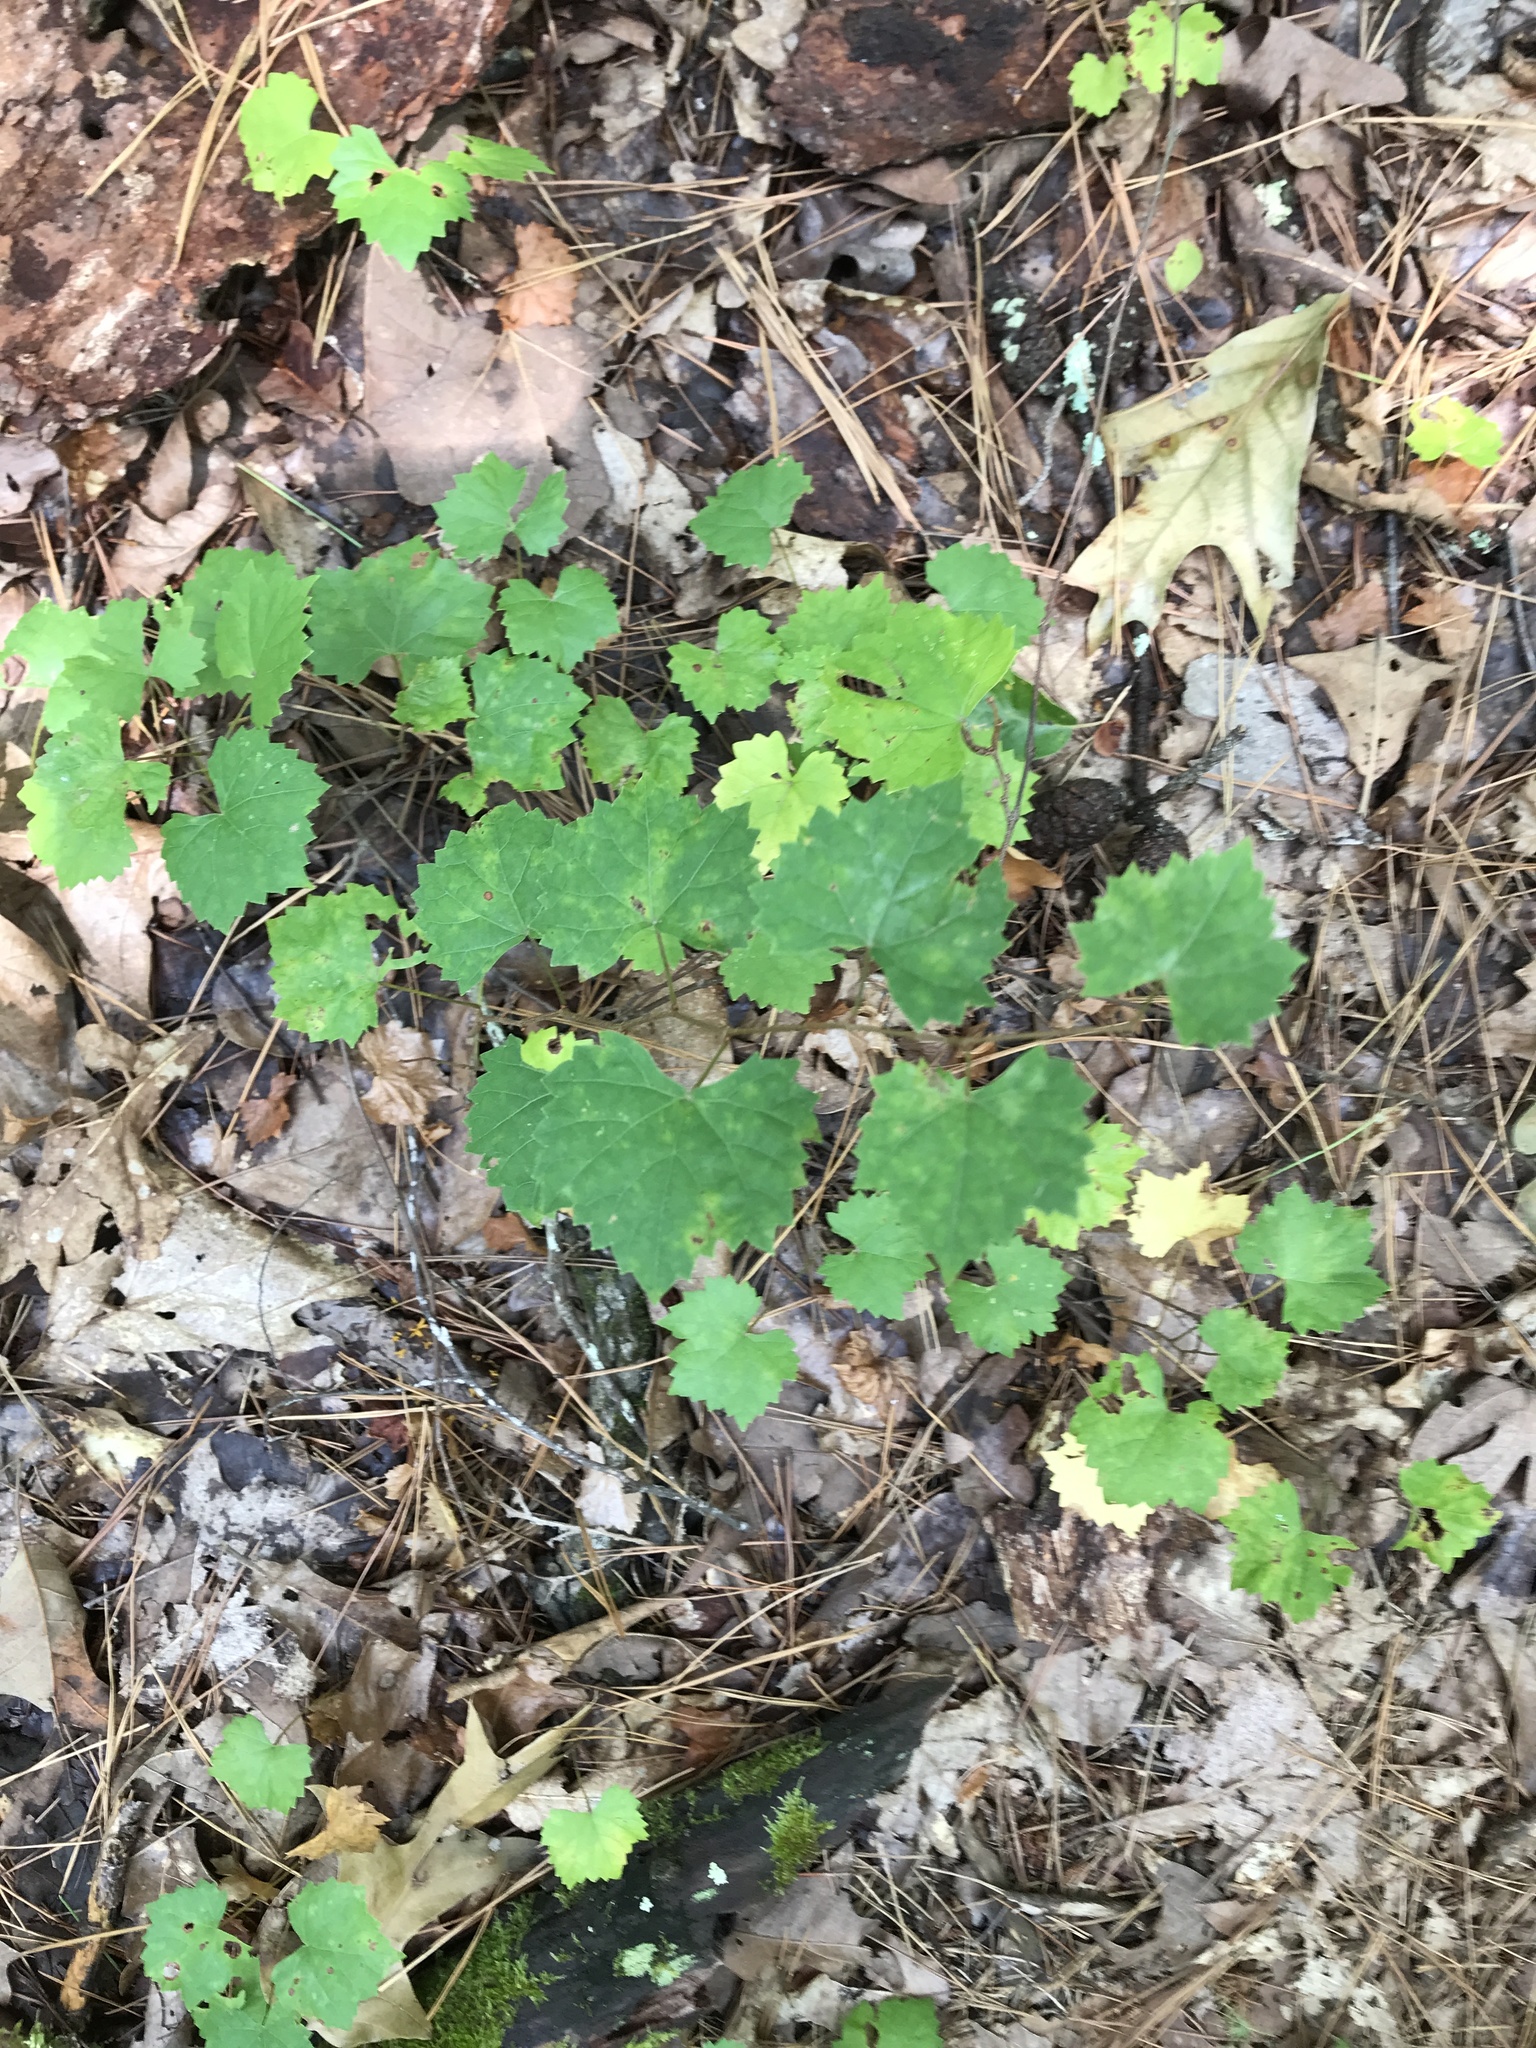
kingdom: Plantae
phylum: Tracheophyta
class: Magnoliopsida
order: Vitales
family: Vitaceae
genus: Vitis
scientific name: Vitis rotundifolia
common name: Muscadine grape
